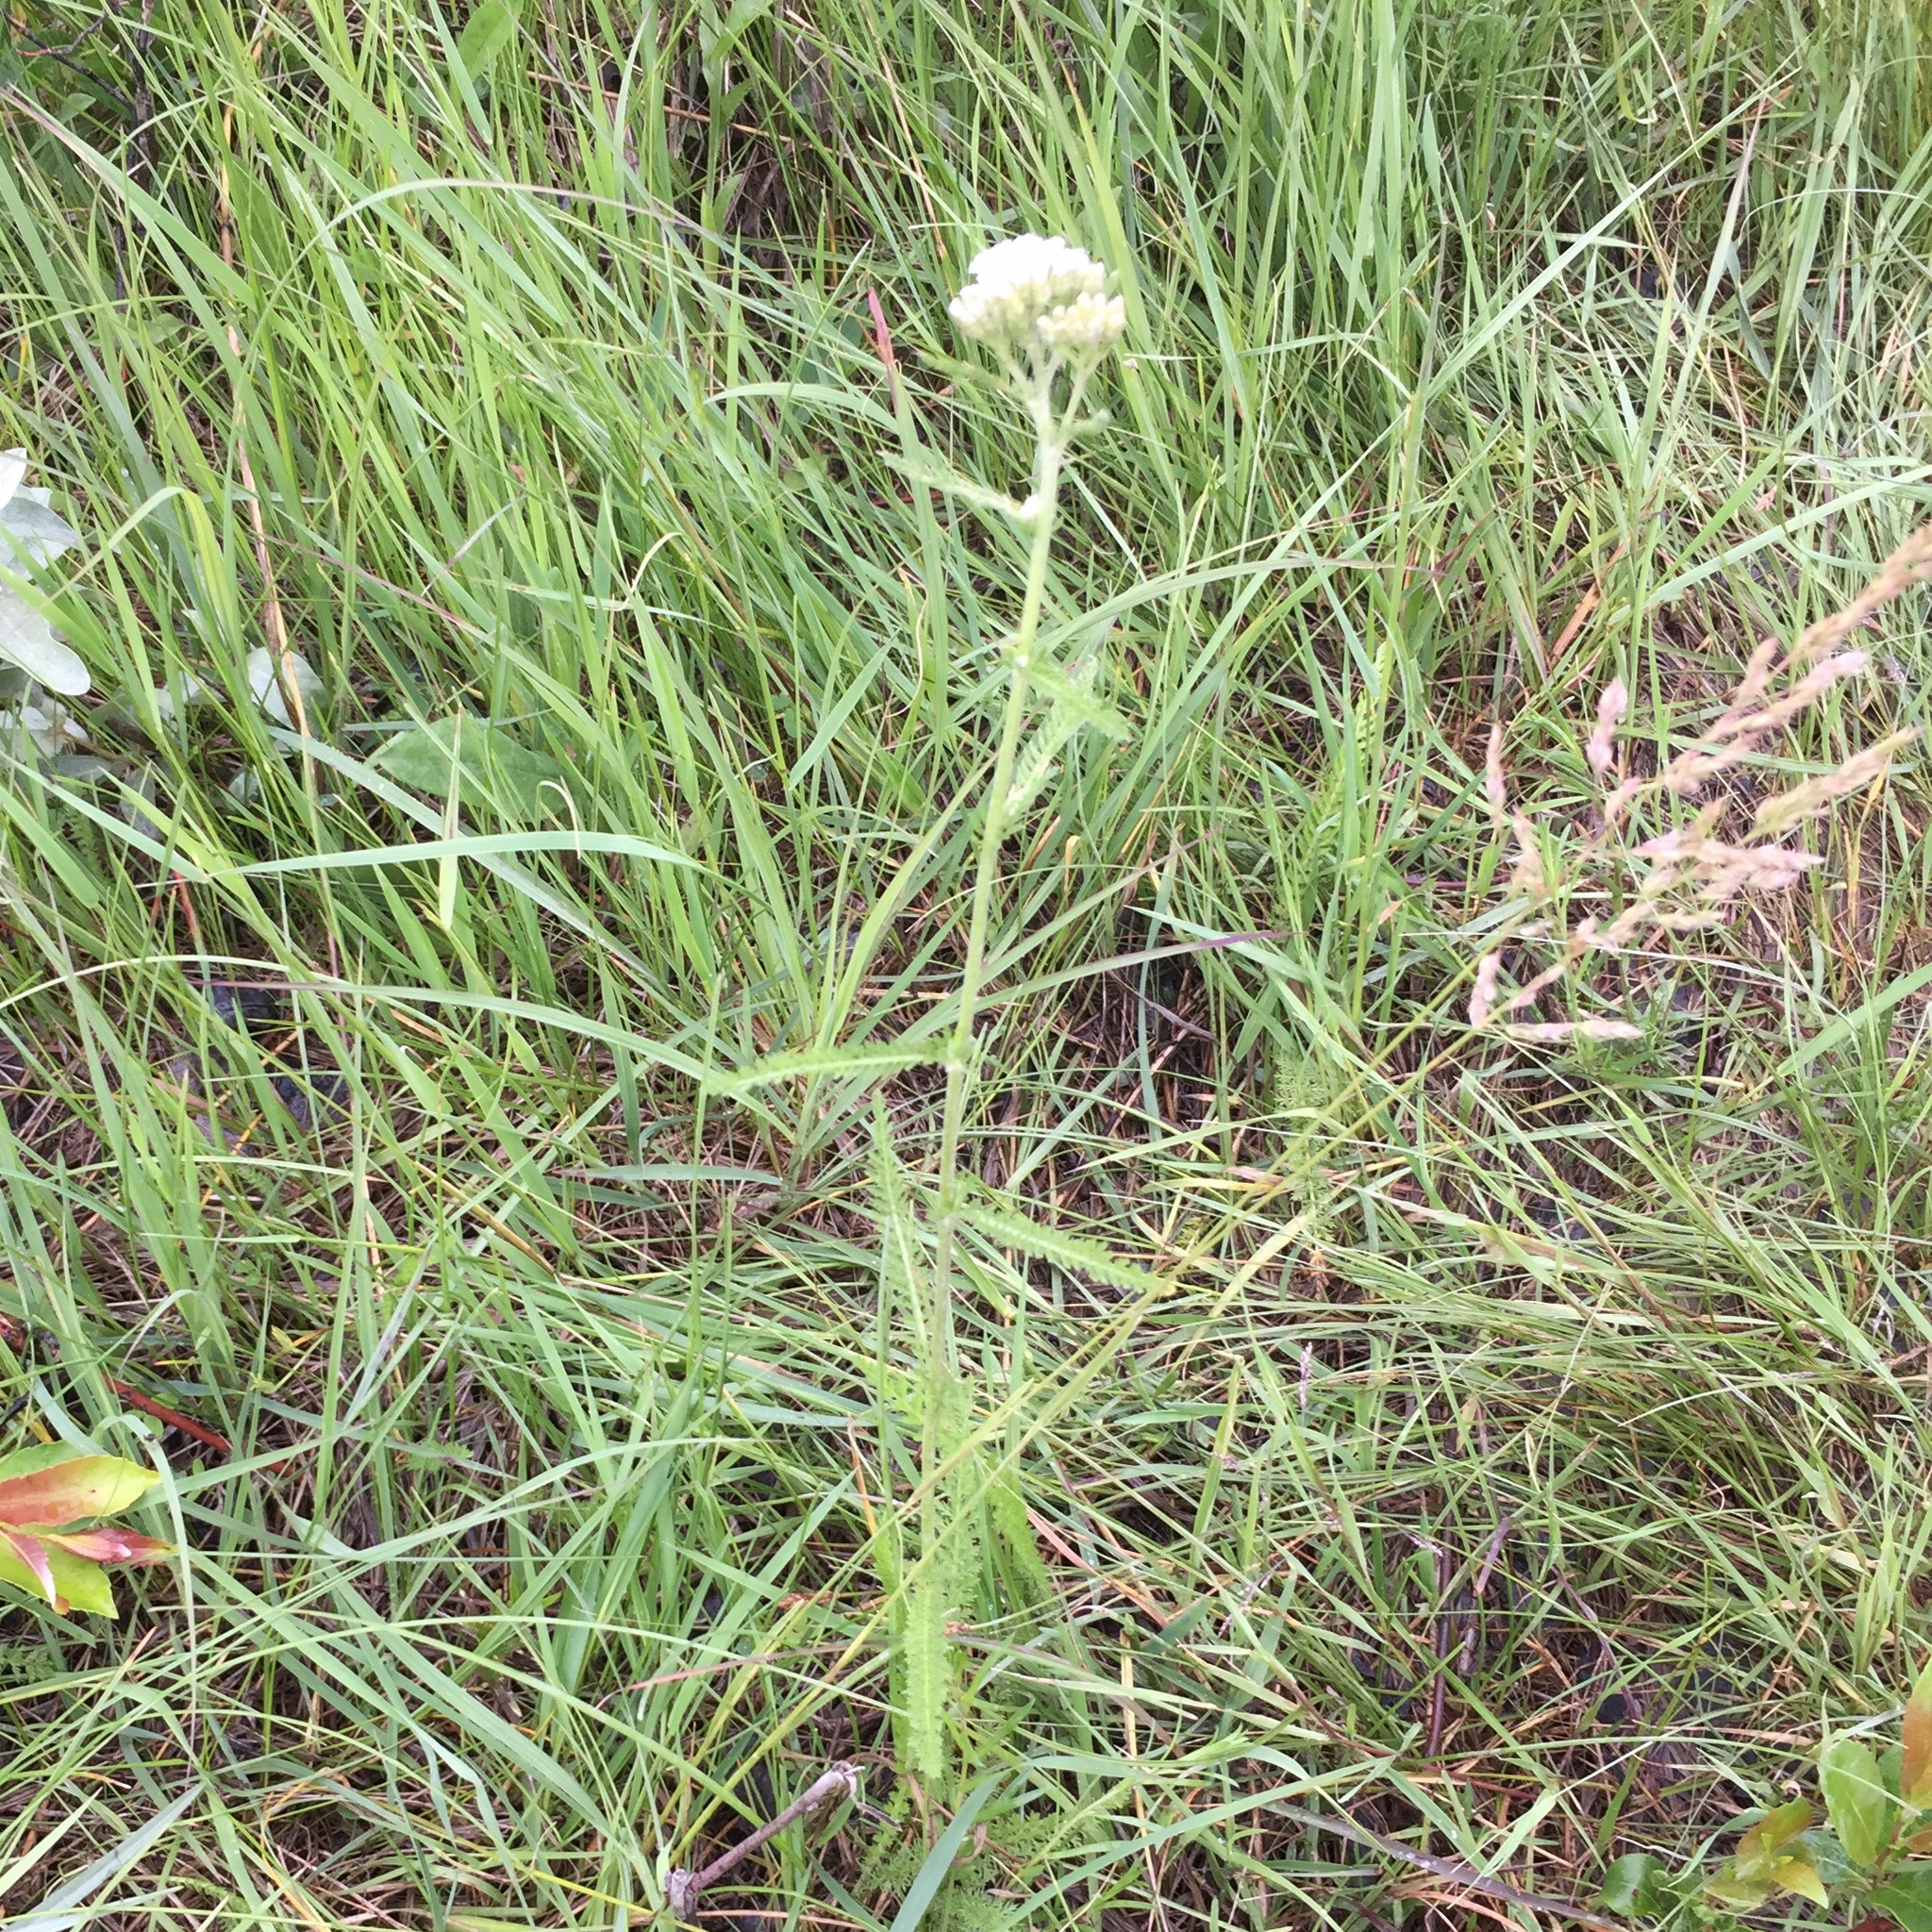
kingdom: Plantae
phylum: Tracheophyta
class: Magnoliopsida
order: Asterales
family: Asteraceae
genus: Achillea
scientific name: Achillea millefolium
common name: Yarrow
